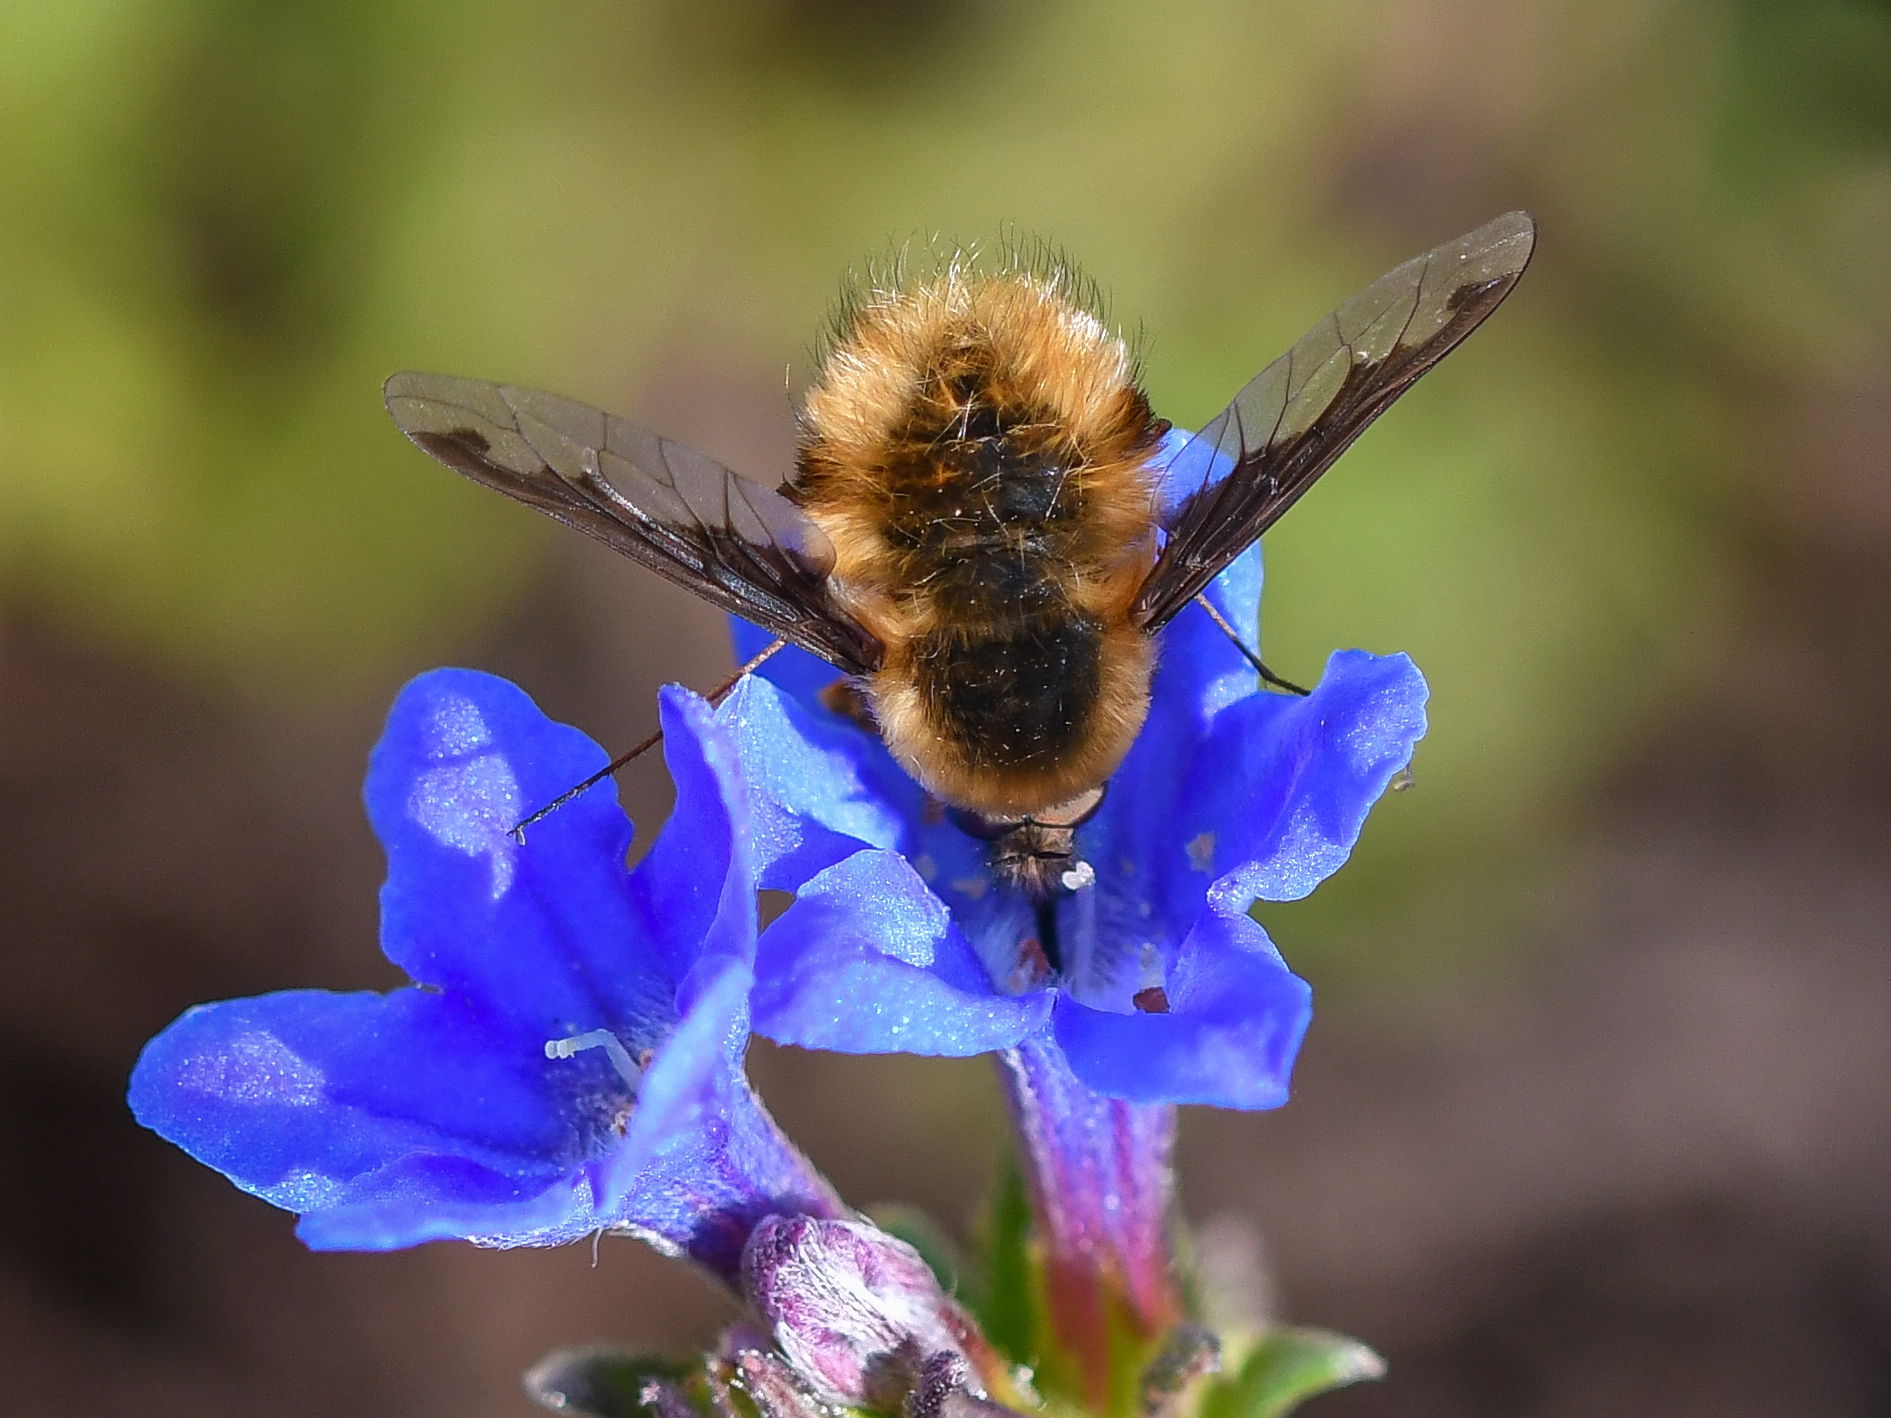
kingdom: Animalia
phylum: Arthropoda
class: Insecta
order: Diptera
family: Bombyliidae
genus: Bombylius
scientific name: Bombylius major
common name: Bee fly
